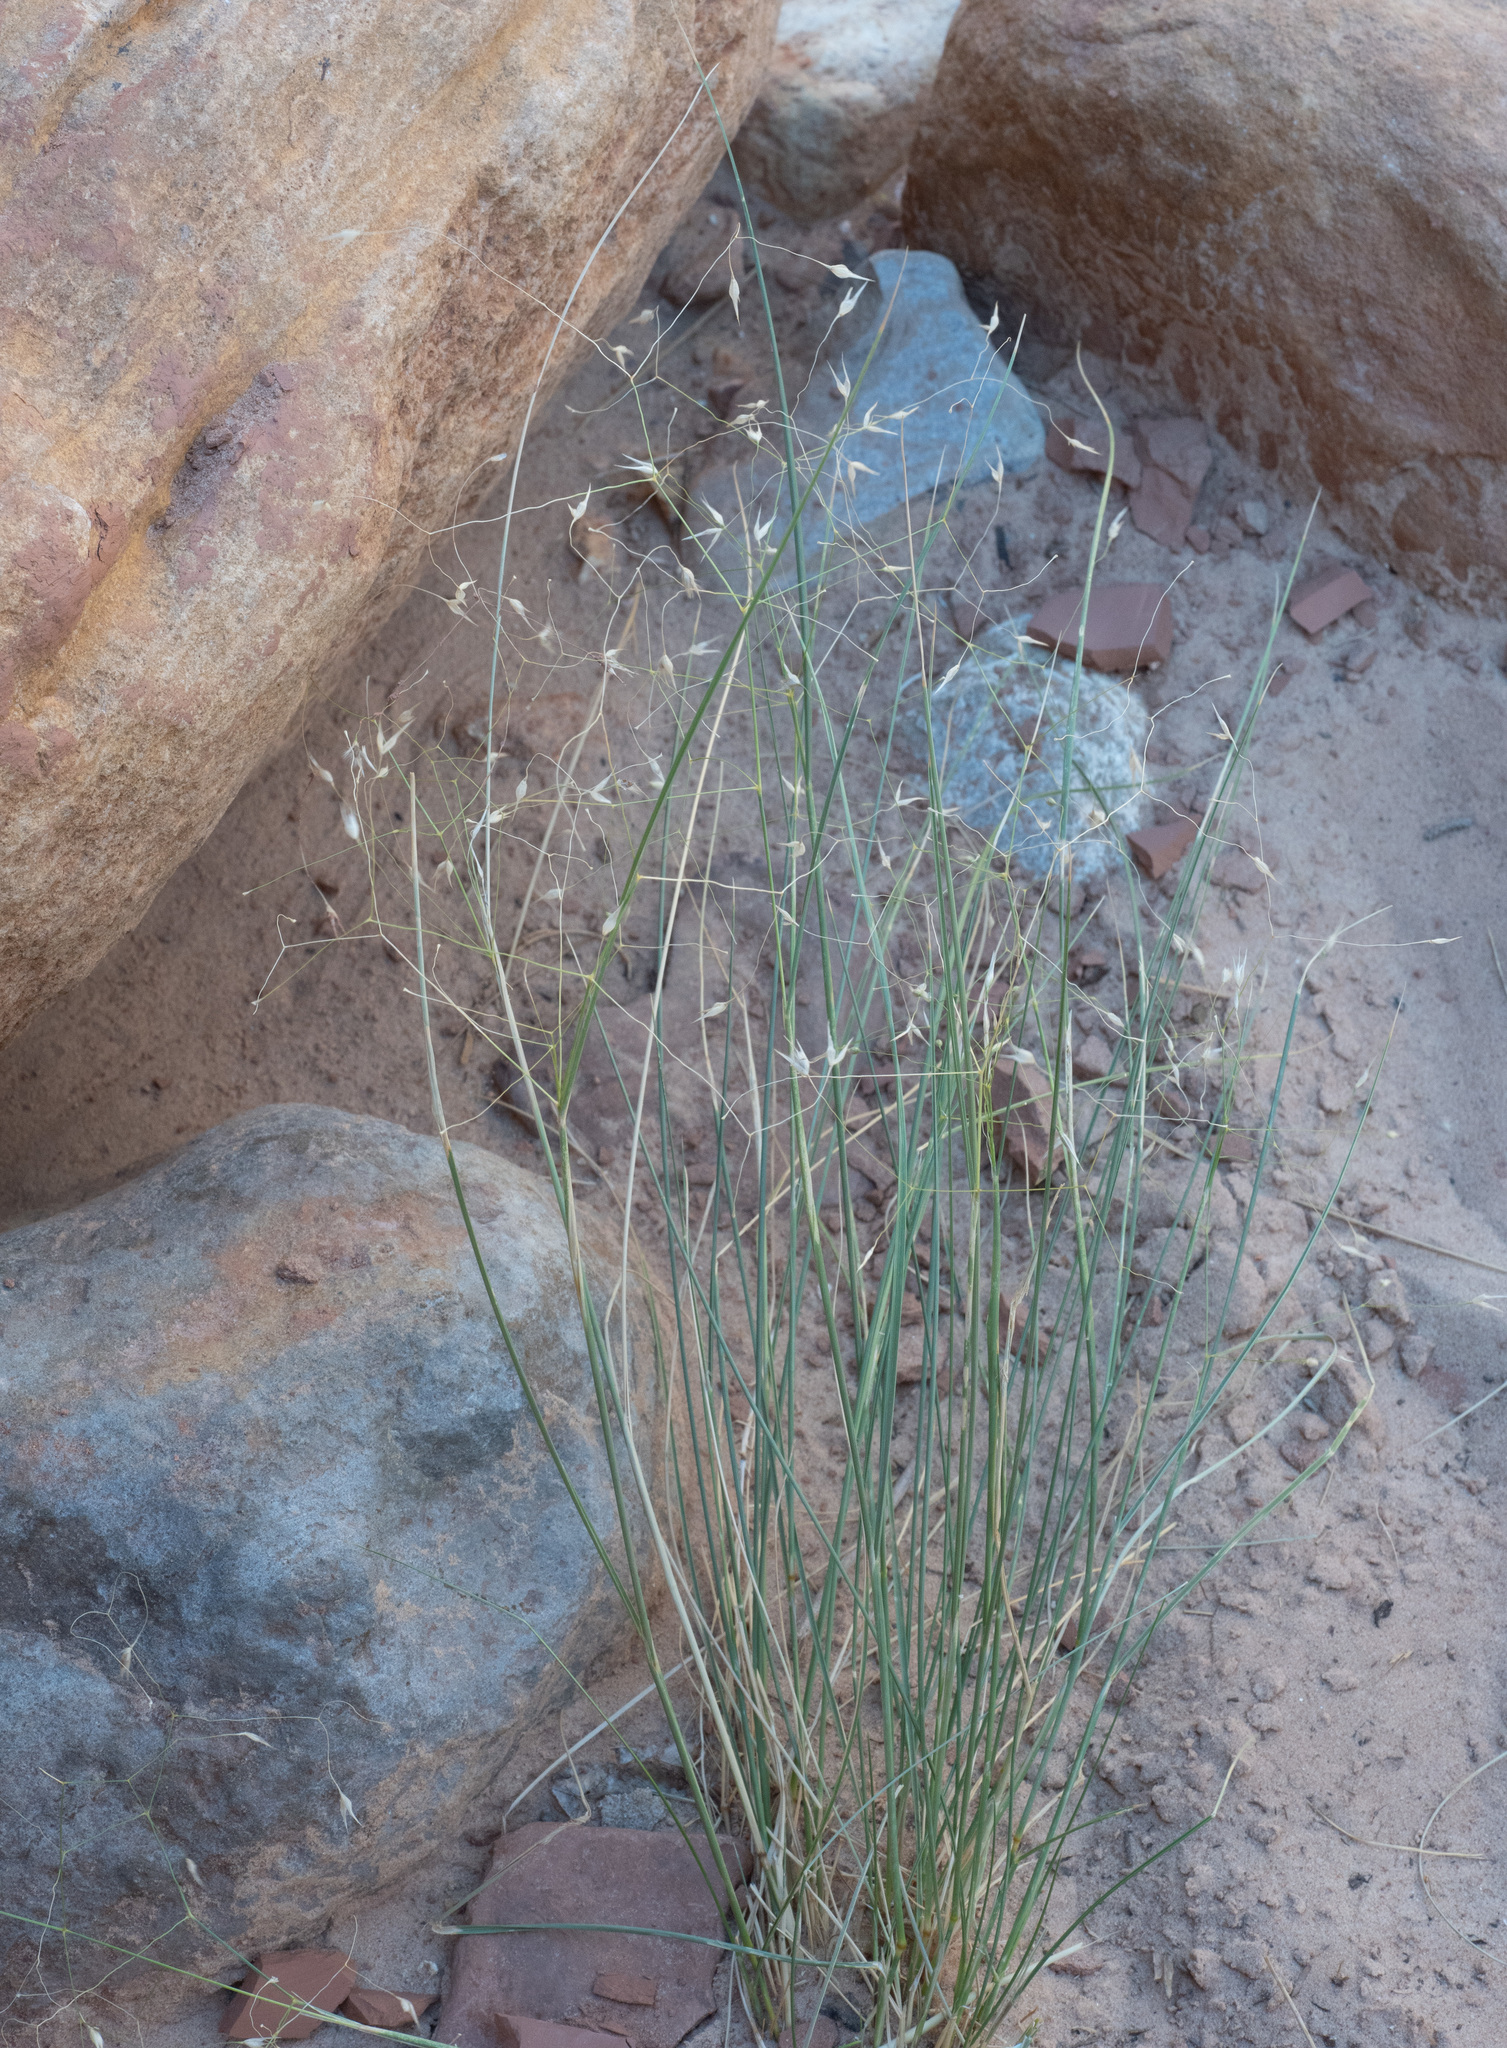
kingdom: Plantae
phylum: Tracheophyta
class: Liliopsida
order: Poales
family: Poaceae
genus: Eriocoma
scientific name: Eriocoma hymenoides
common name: Indian mountain ricegrass
